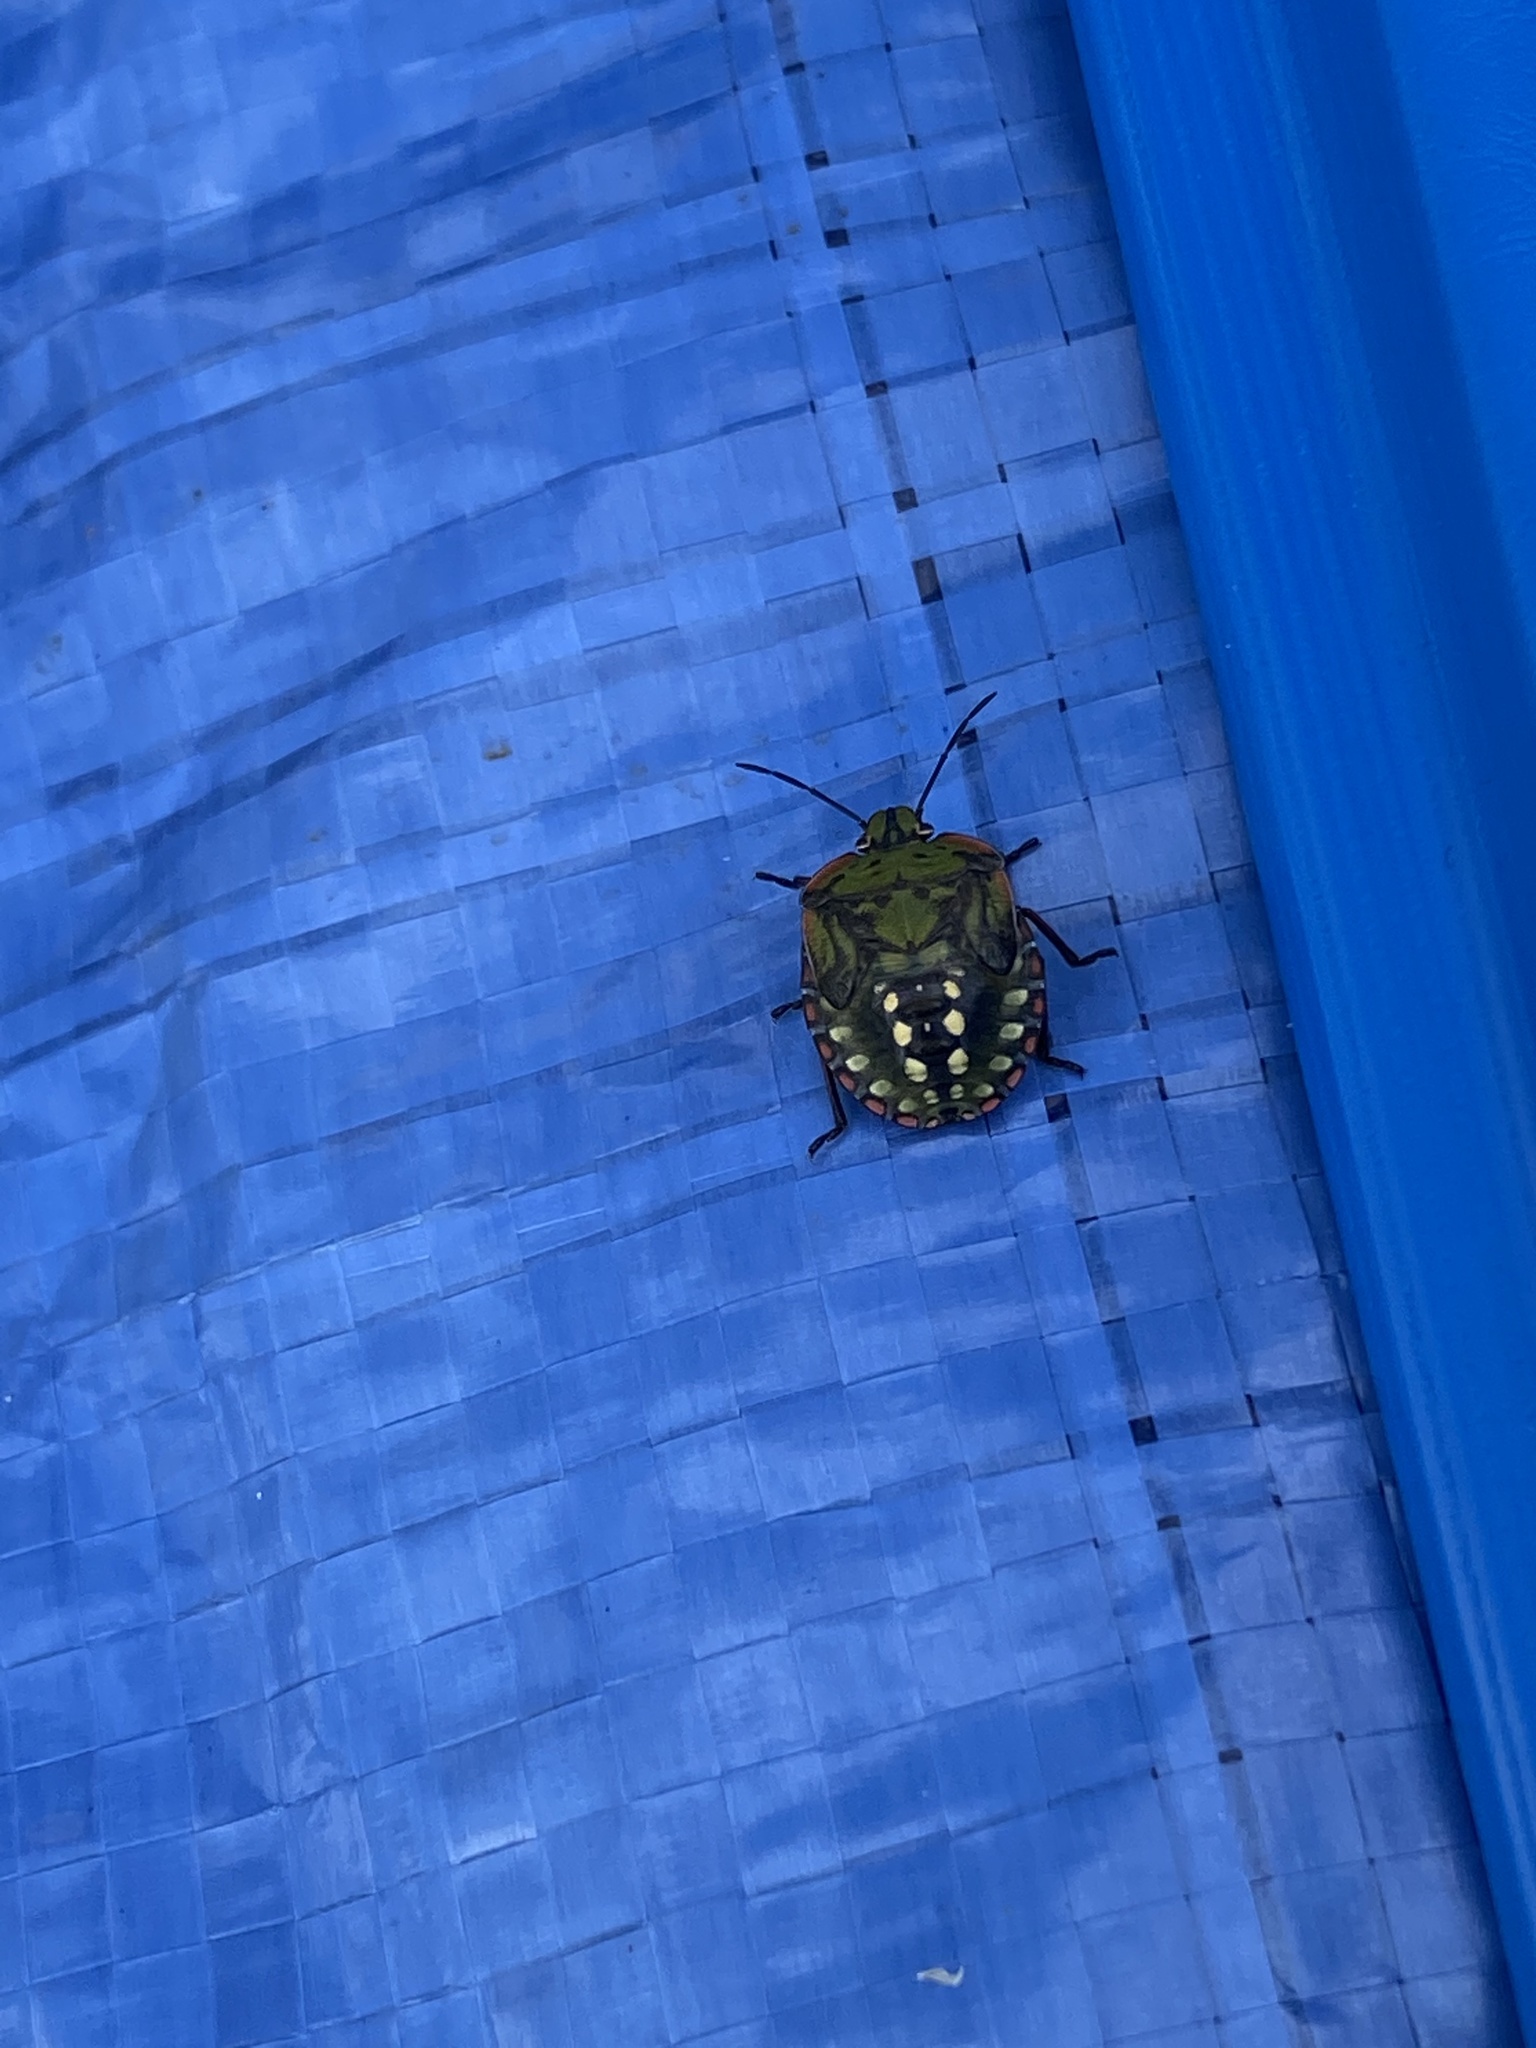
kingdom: Animalia
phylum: Arthropoda
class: Insecta
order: Hemiptera
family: Pentatomidae
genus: Nezara
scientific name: Nezara viridula
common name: Southern green stink bug
